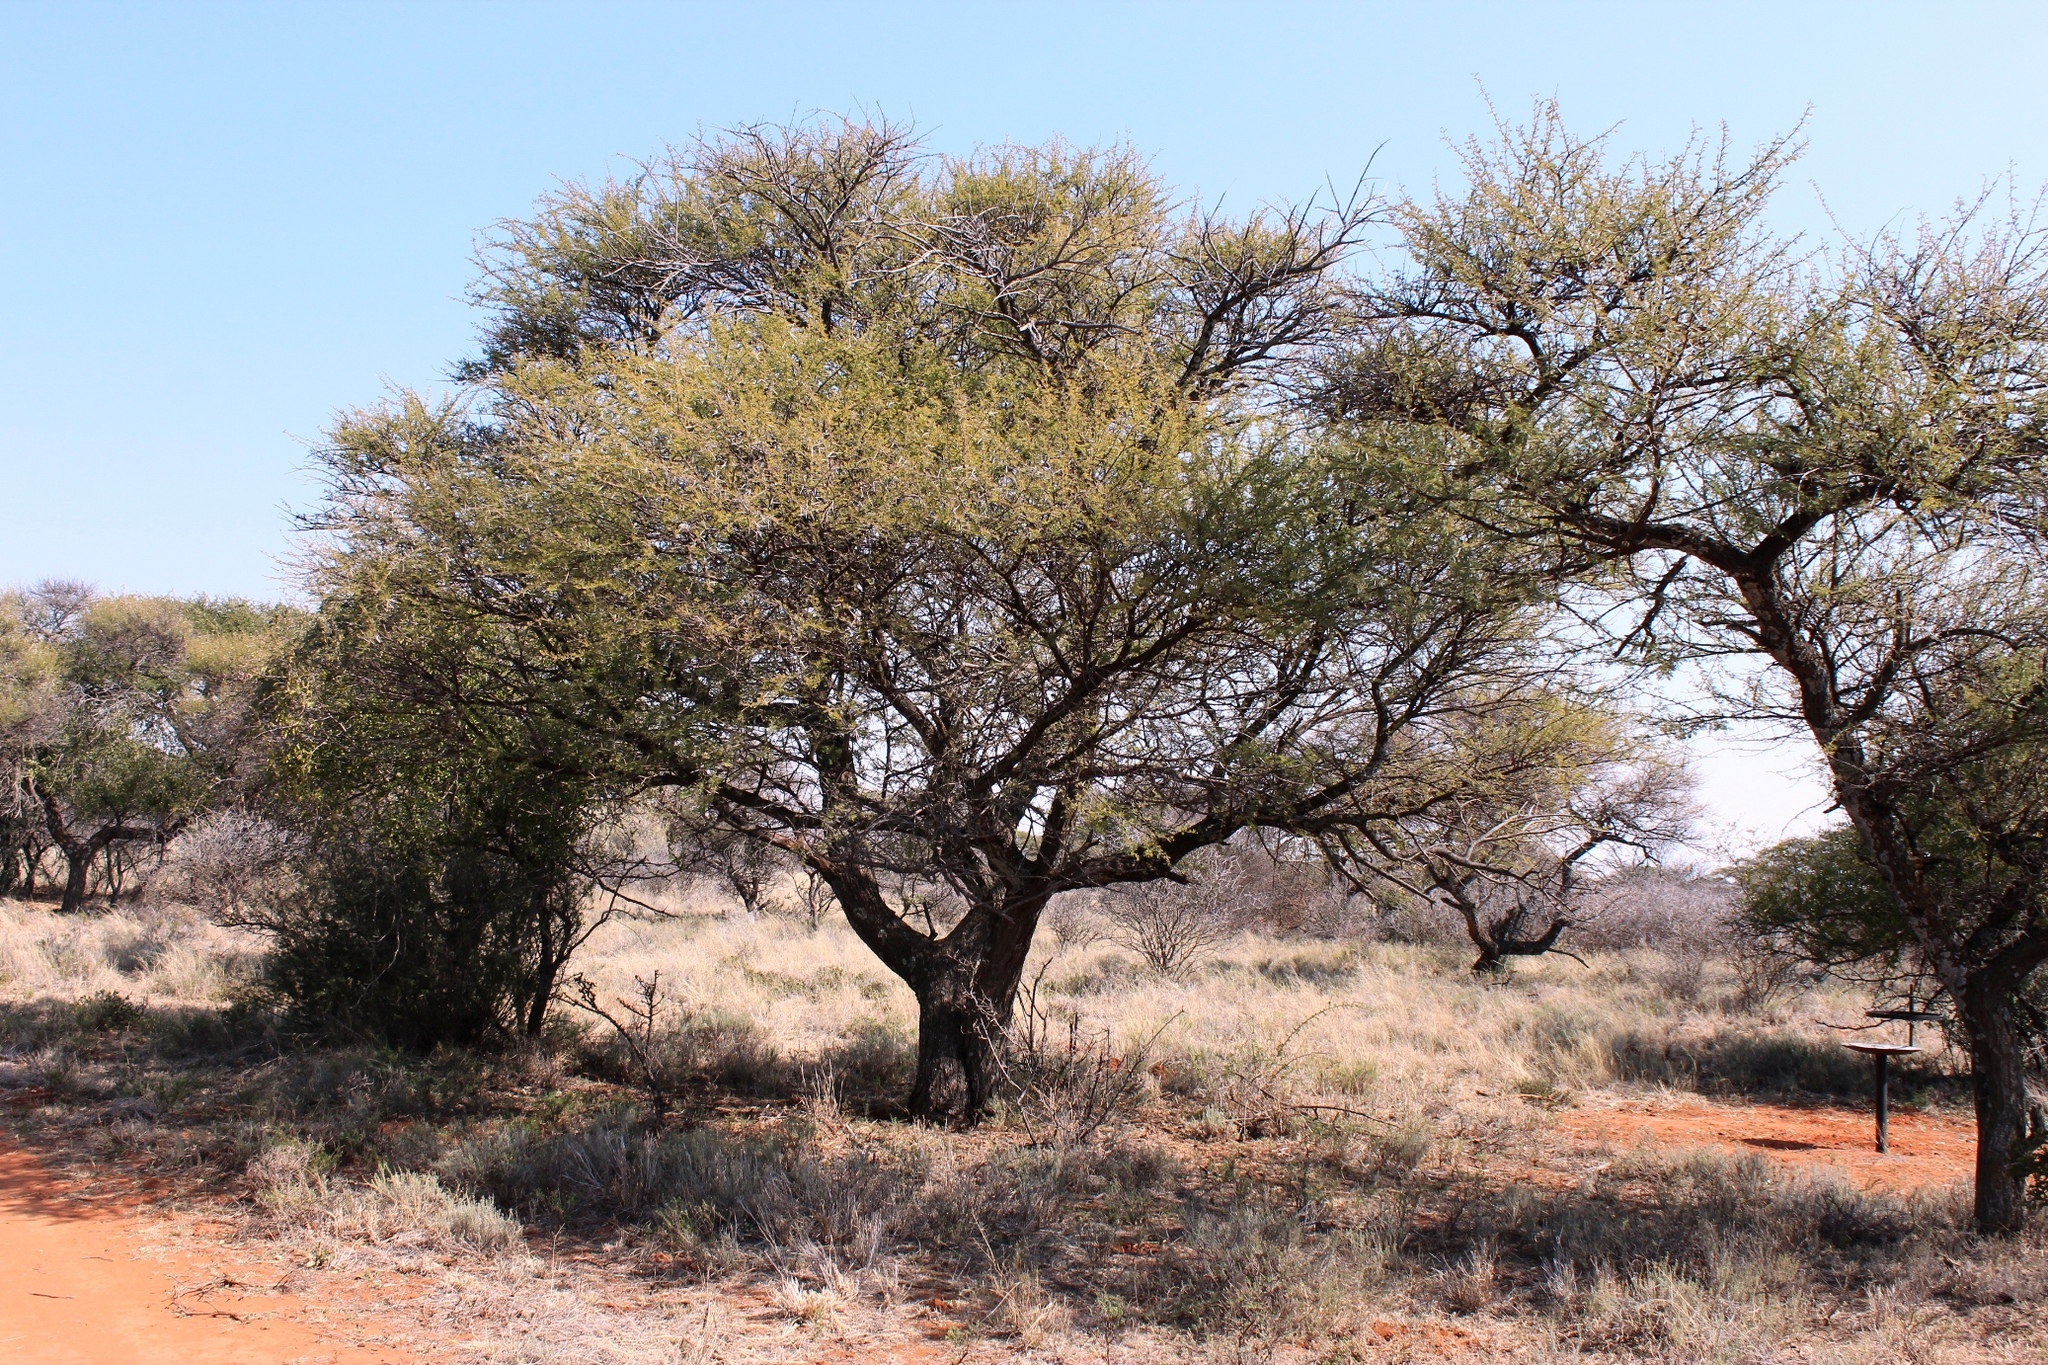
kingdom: Plantae
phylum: Tracheophyta
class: Magnoliopsida
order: Fabales
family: Fabaceae
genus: Vachellia
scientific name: Vachellia tortilis
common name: Umbrella thorn acacia
